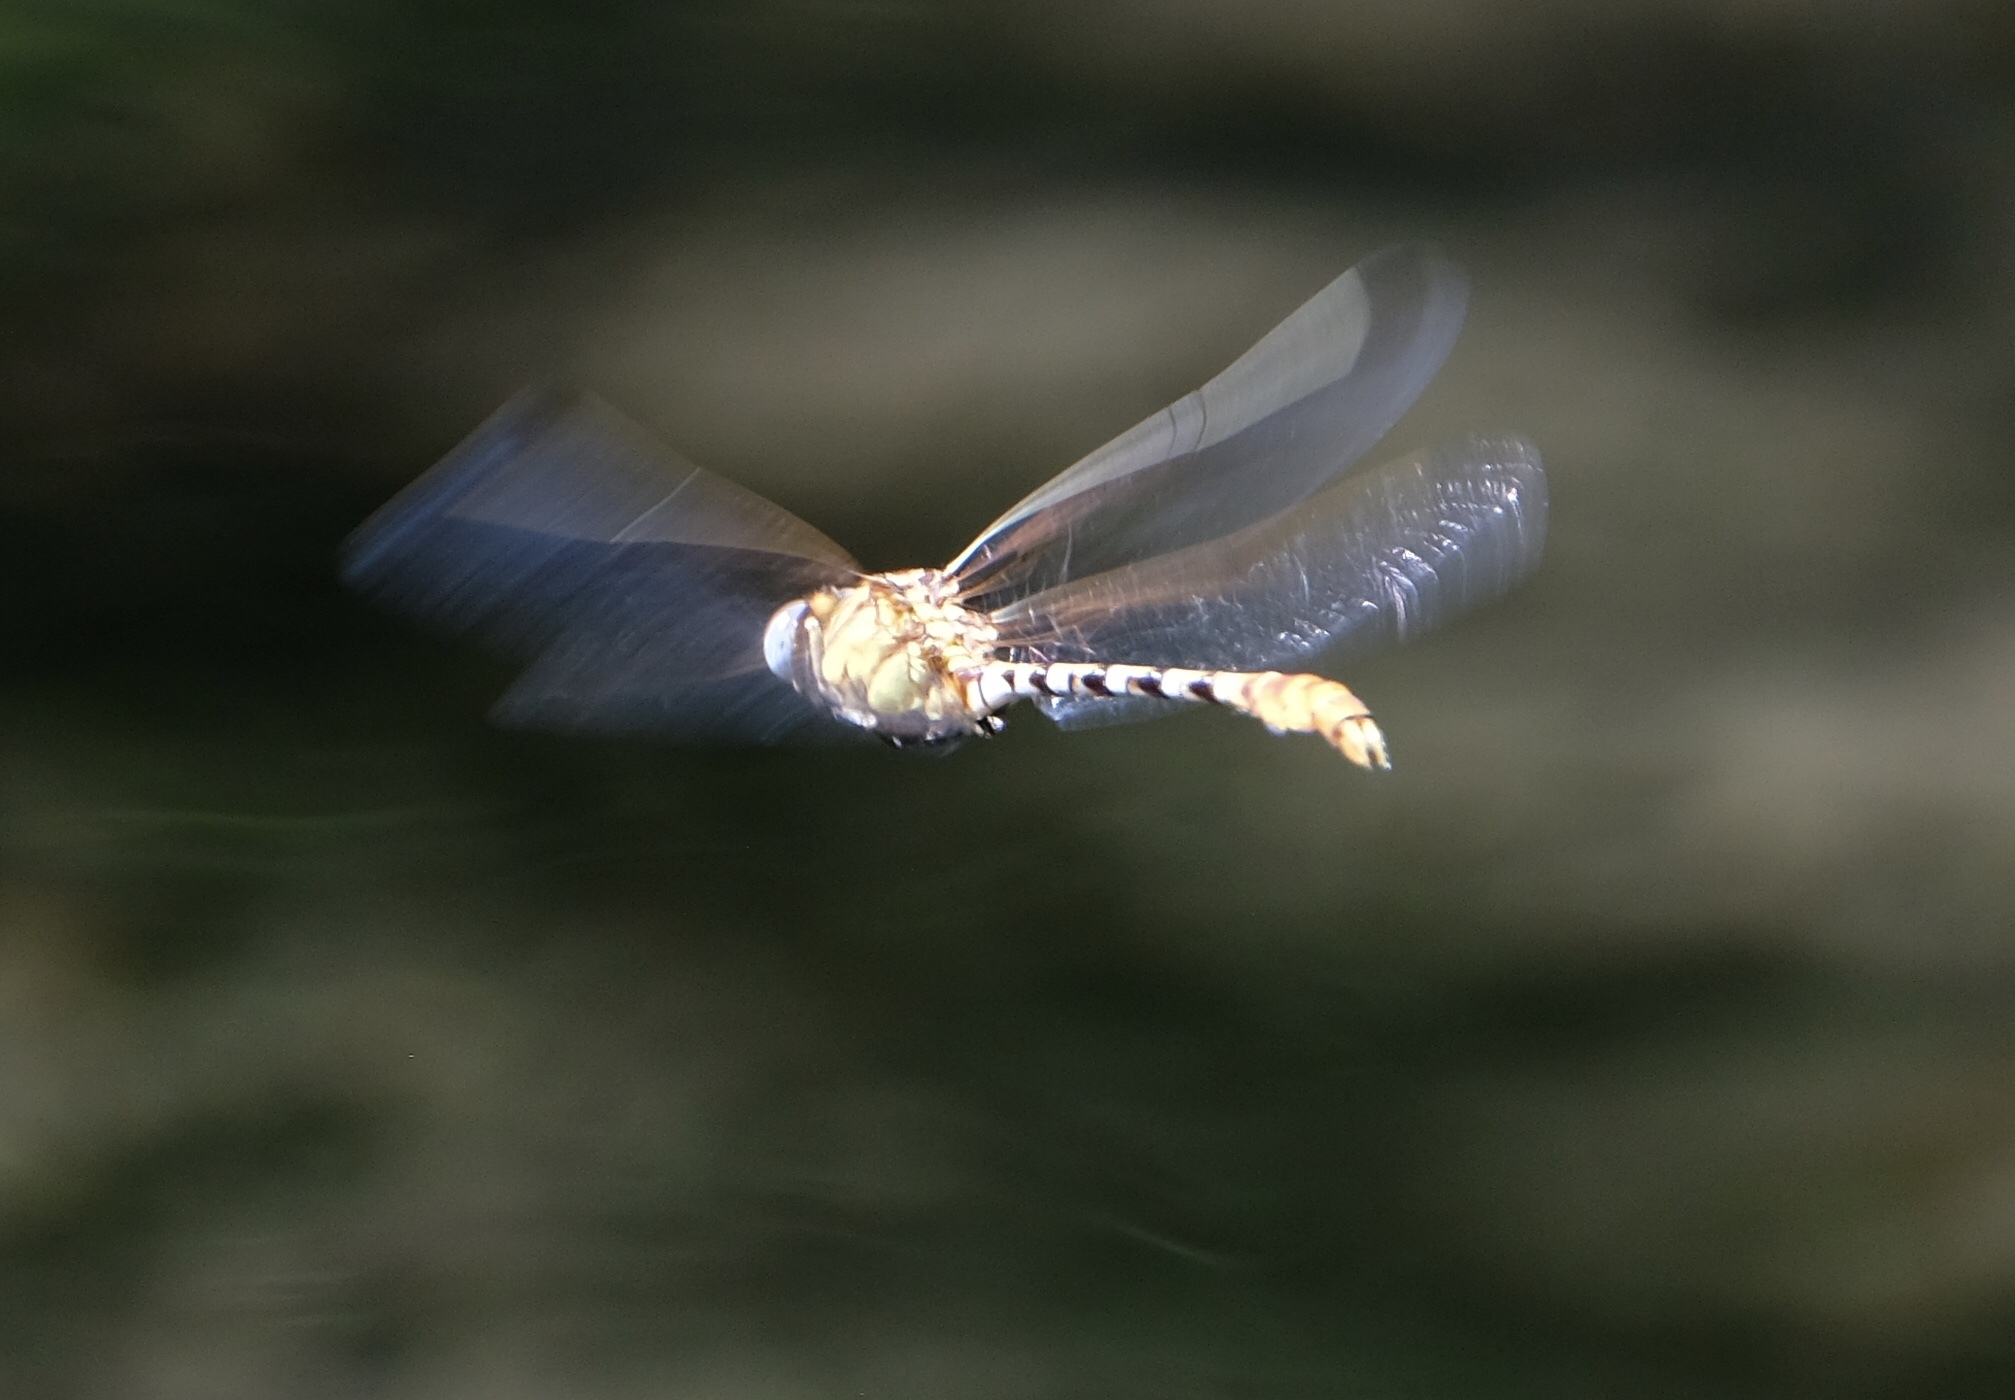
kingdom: Animalia
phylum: Arthropoda
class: Insecta
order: Odonata
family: Gomphidae
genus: Erpetogomphus
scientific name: Erpetogomphus designatus
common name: Eastern ringtail
